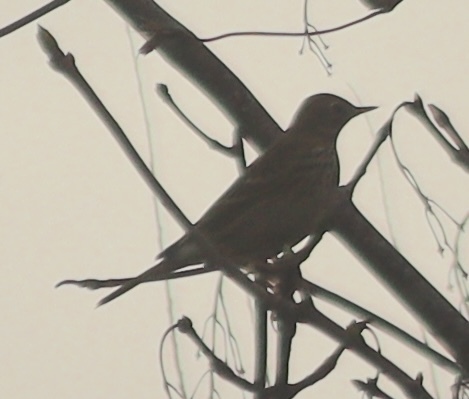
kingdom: Animalia
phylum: Chordata
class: Aves
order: Passeriformes
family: Motacillidae
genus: Anthus
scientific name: Anthus pratensis
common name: Meadow pipit
